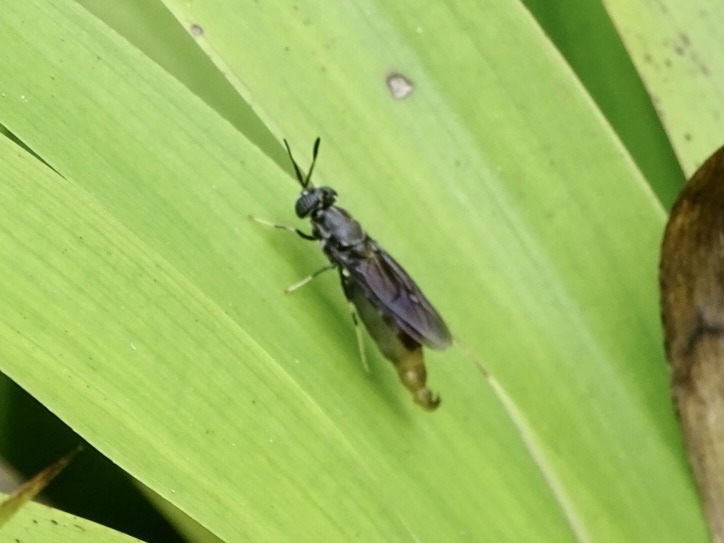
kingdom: Animalia
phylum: Arthropoda
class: Insecta
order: Diptera
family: Stratiomyidae
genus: Hermetia
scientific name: Hermetia illucens
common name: Black soldier fly
